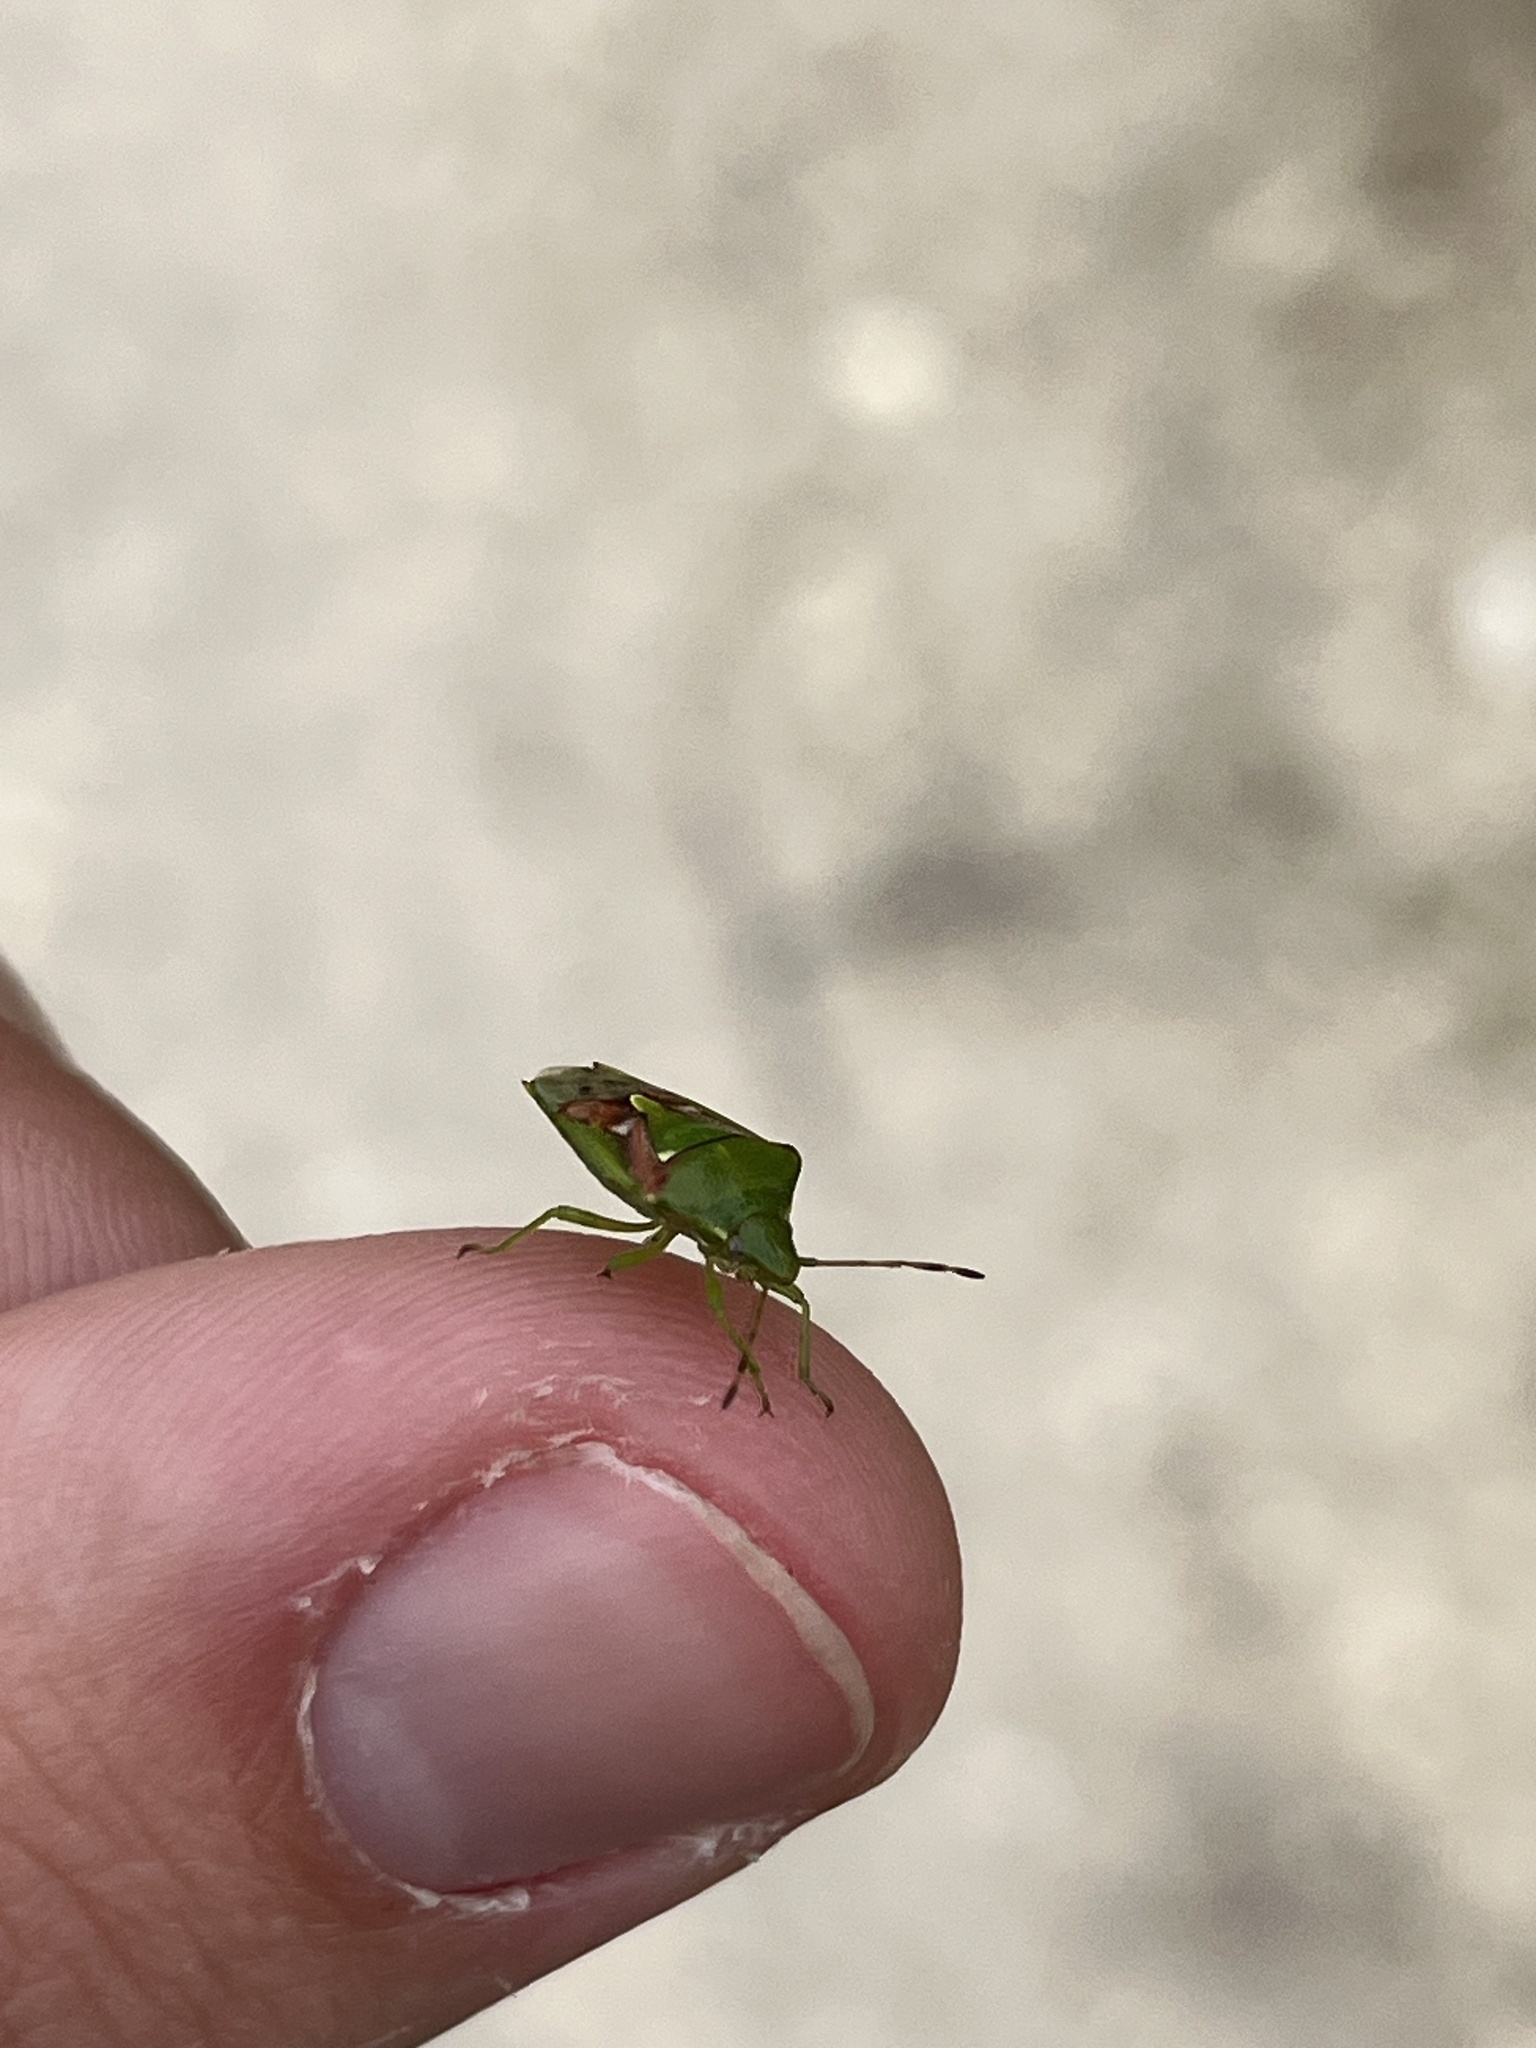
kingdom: Animalia
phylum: Arthropoda
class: Insecta
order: Hemiptera
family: Acanthosomatidae
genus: Cyphostethus
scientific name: Cyphostethus tristriatus
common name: Juniper shieldbug
